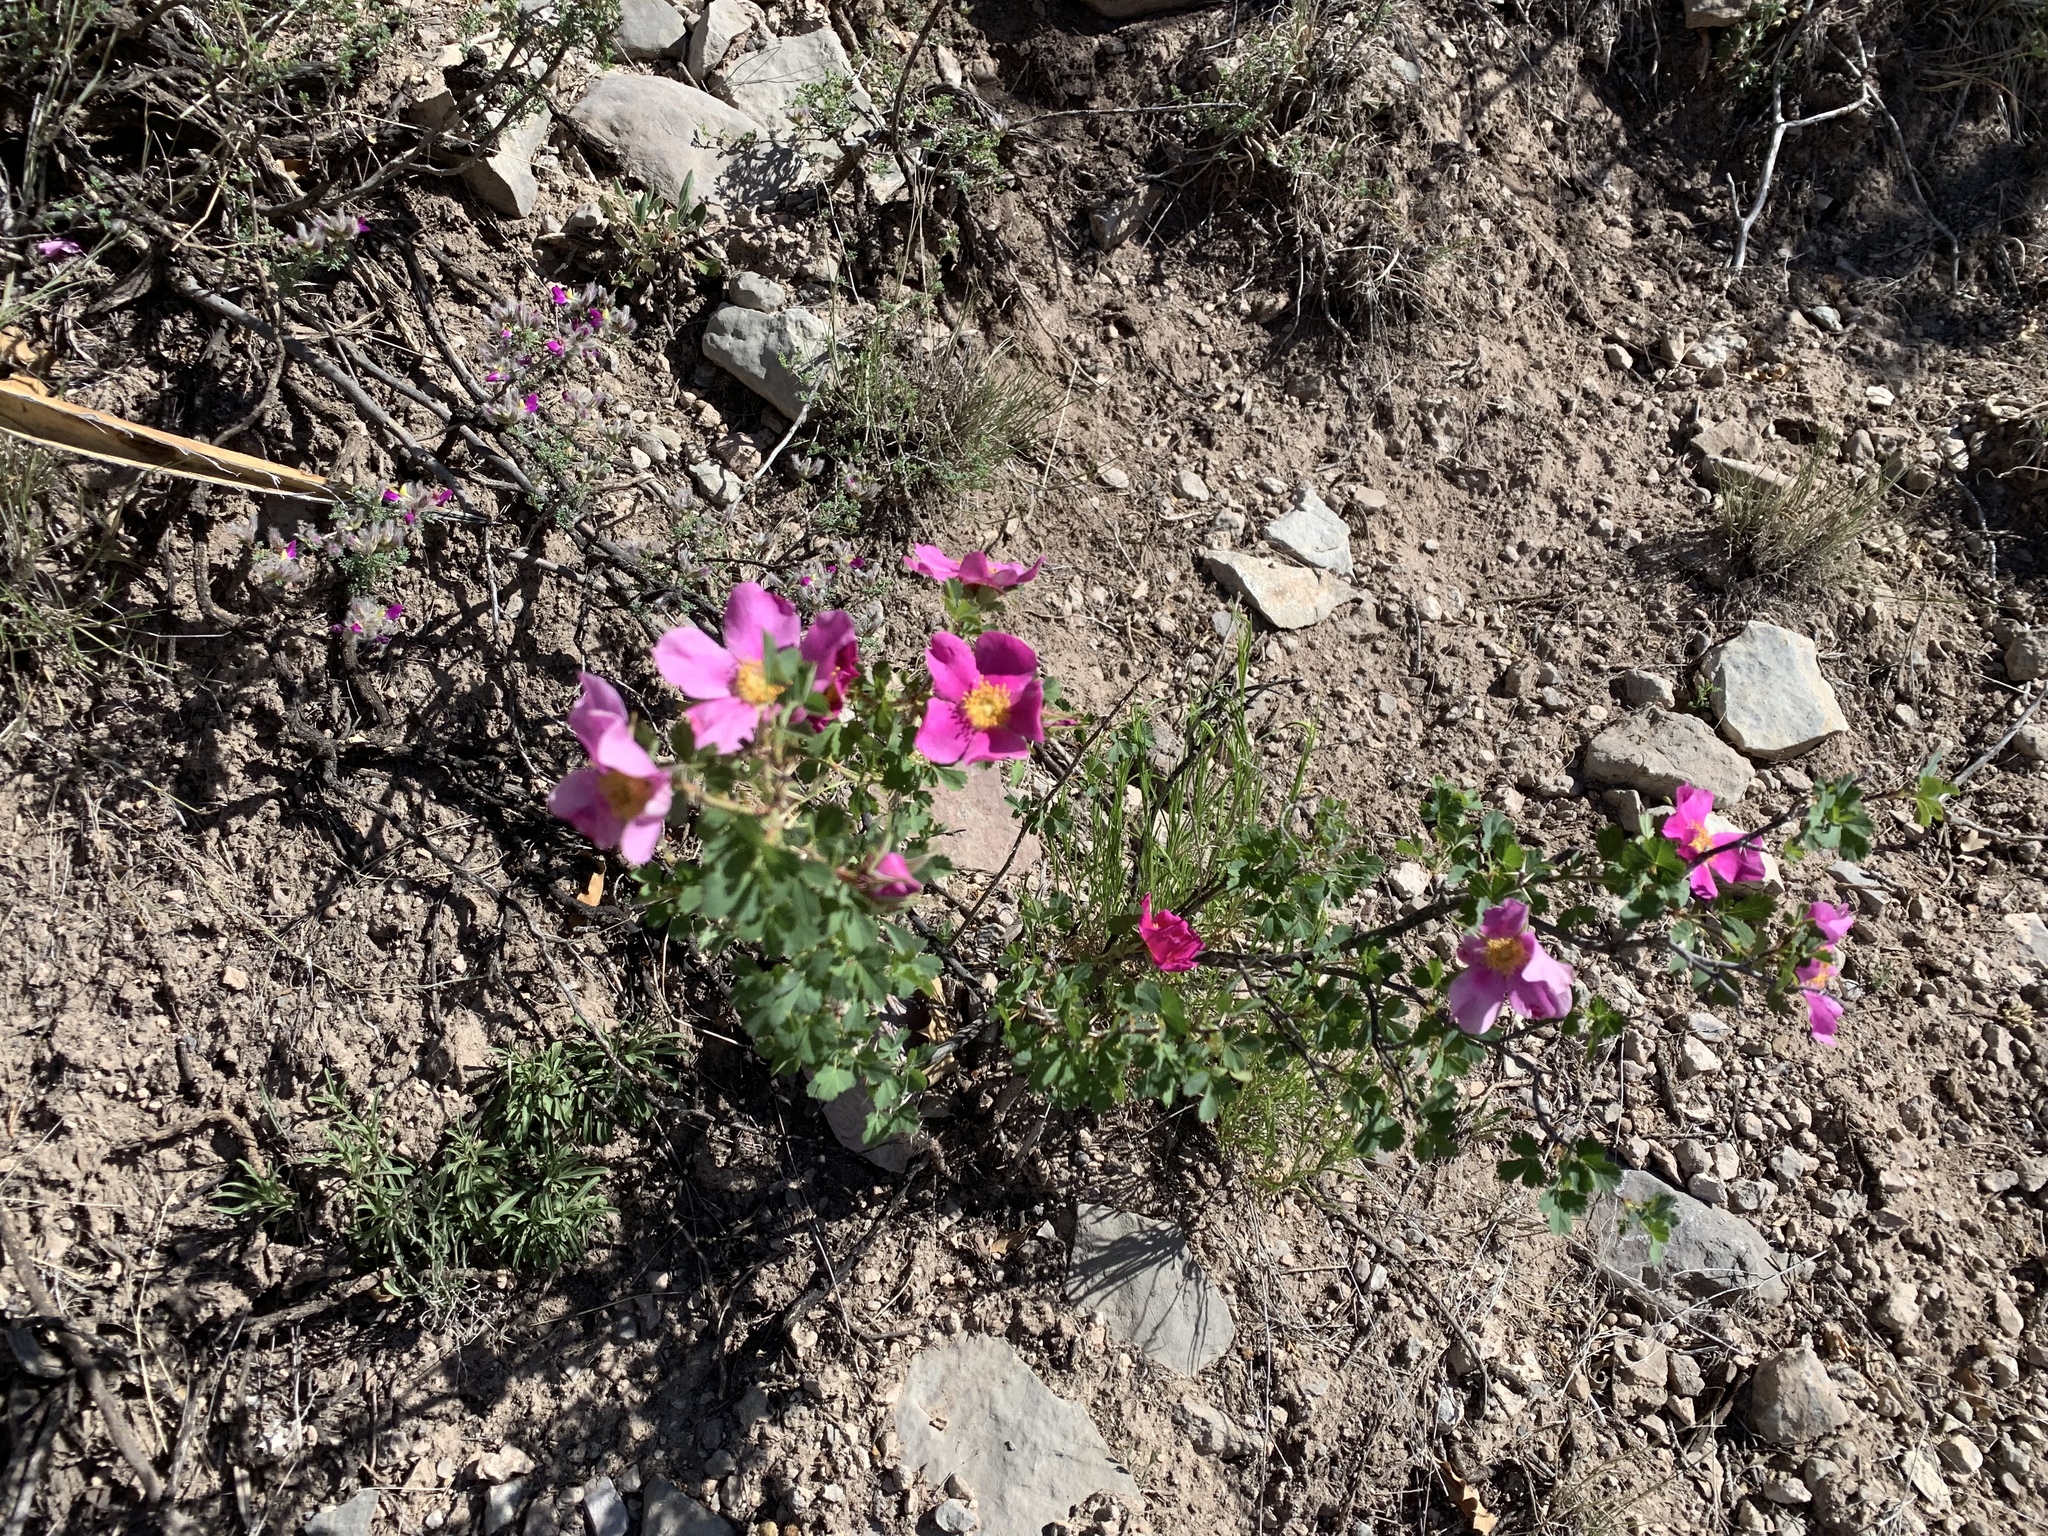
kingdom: Plantae
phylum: Tracheophyta
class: Magnoliopsida
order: Rosales
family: Rosaceae
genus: Rosa
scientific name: Rosa stellata
